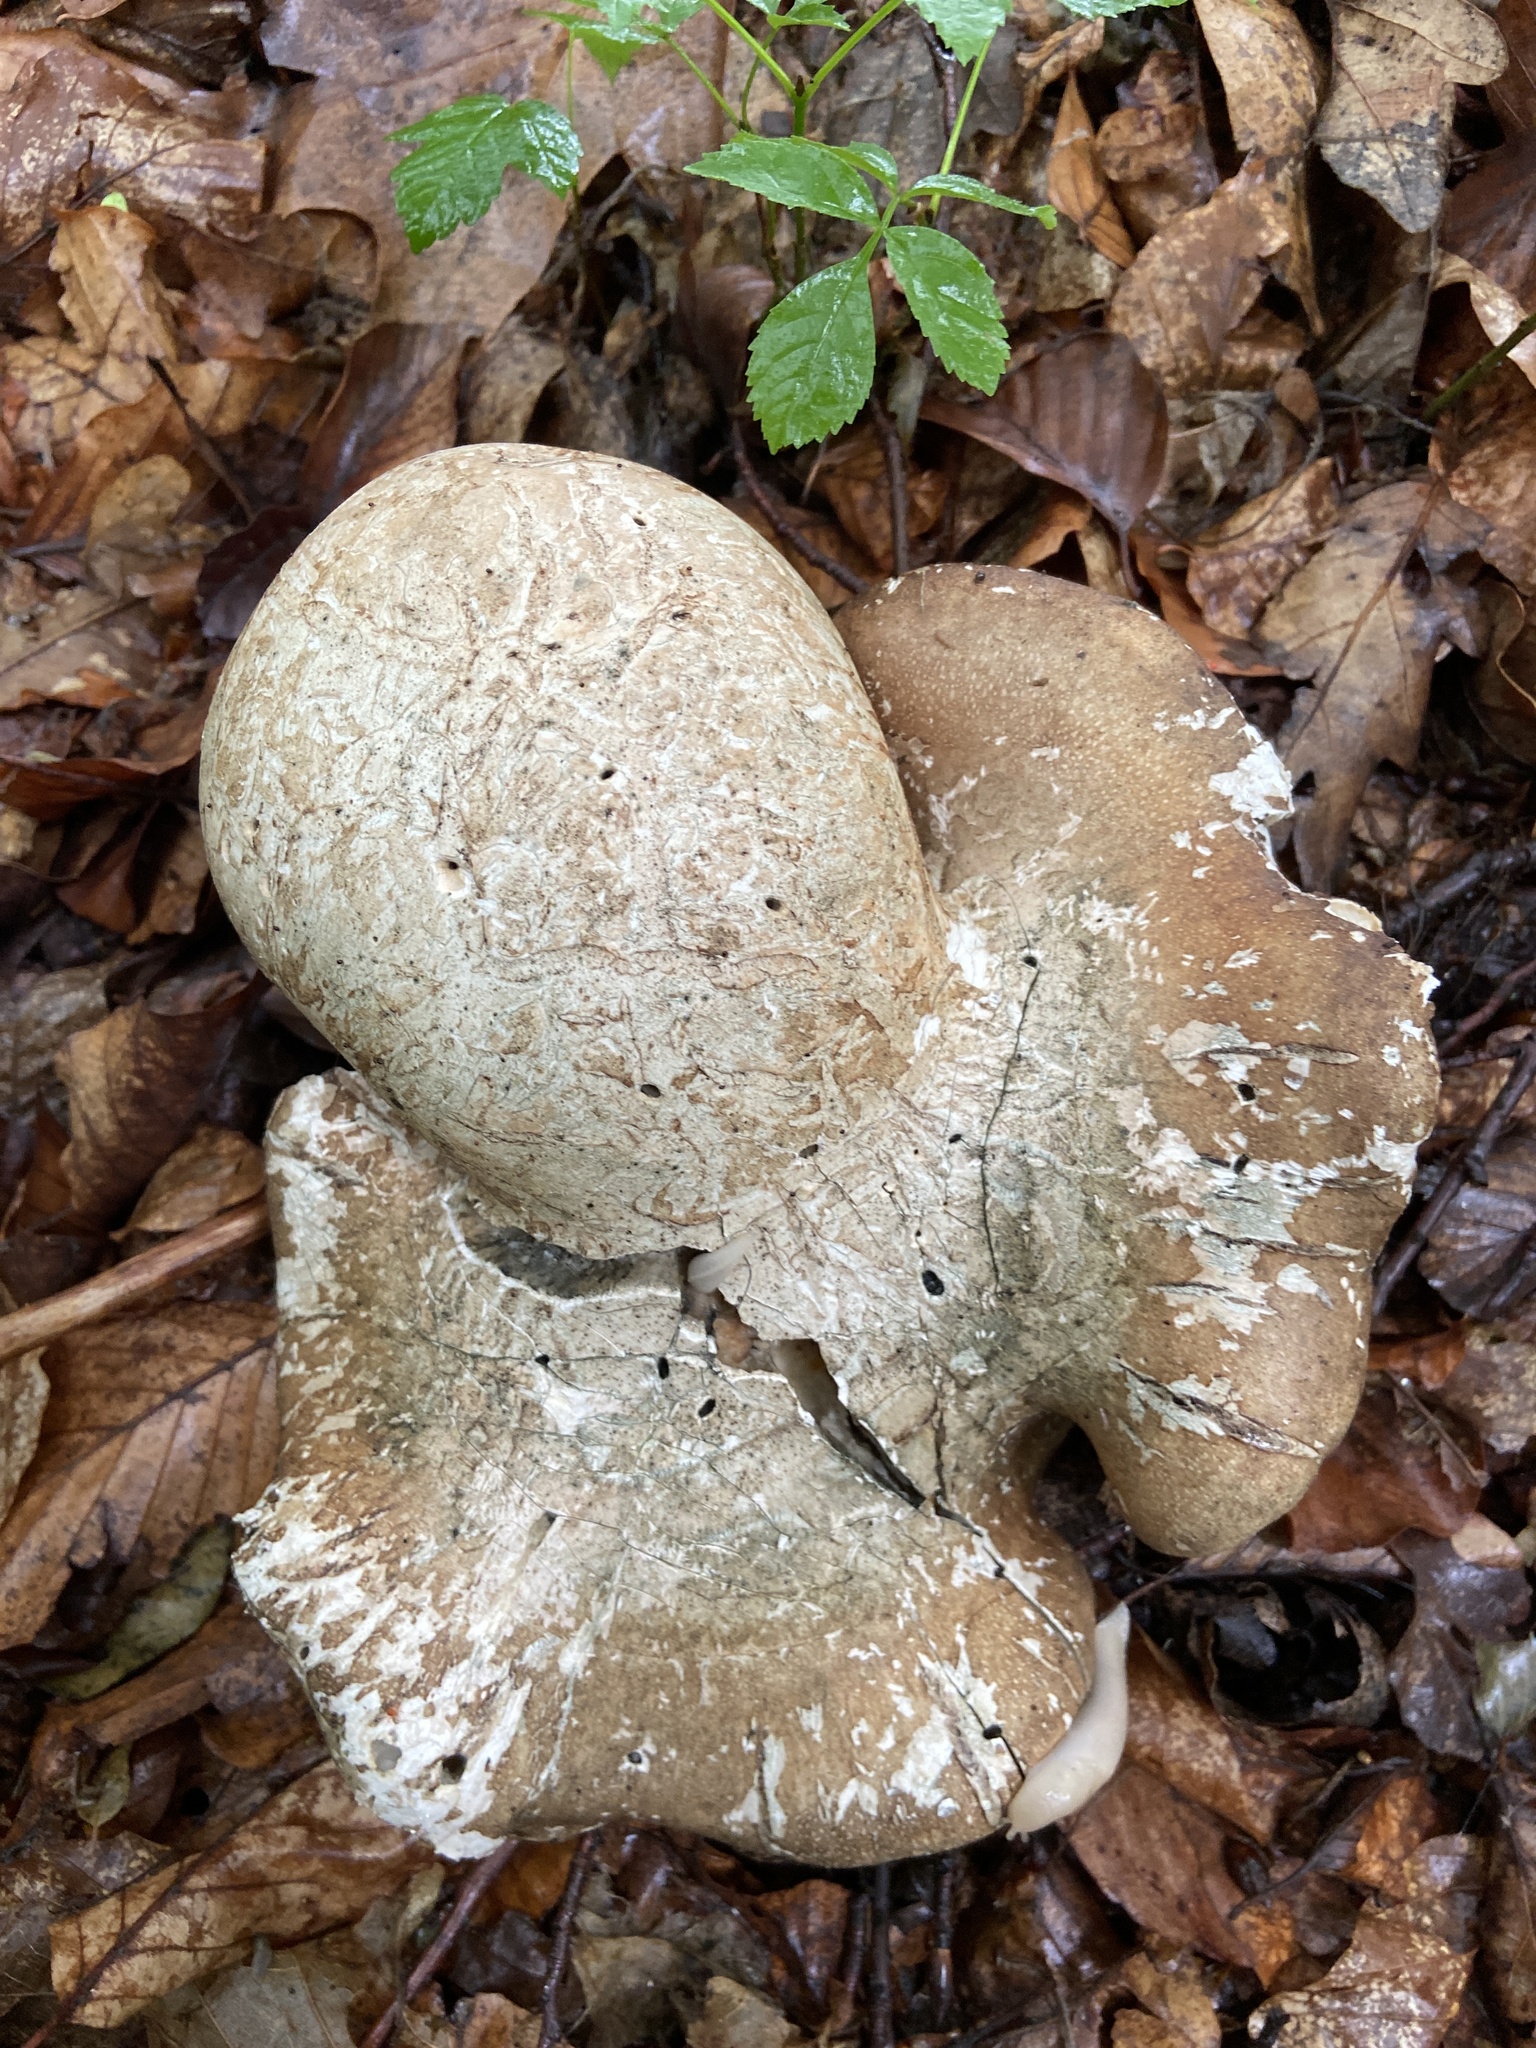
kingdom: Fungi
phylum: Basidiomycota
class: Agaricomycetes
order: Polyporales
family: Fomitopsidaceae
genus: Fomitopsis
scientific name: Fomitopsis betulina
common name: Birch polypore
